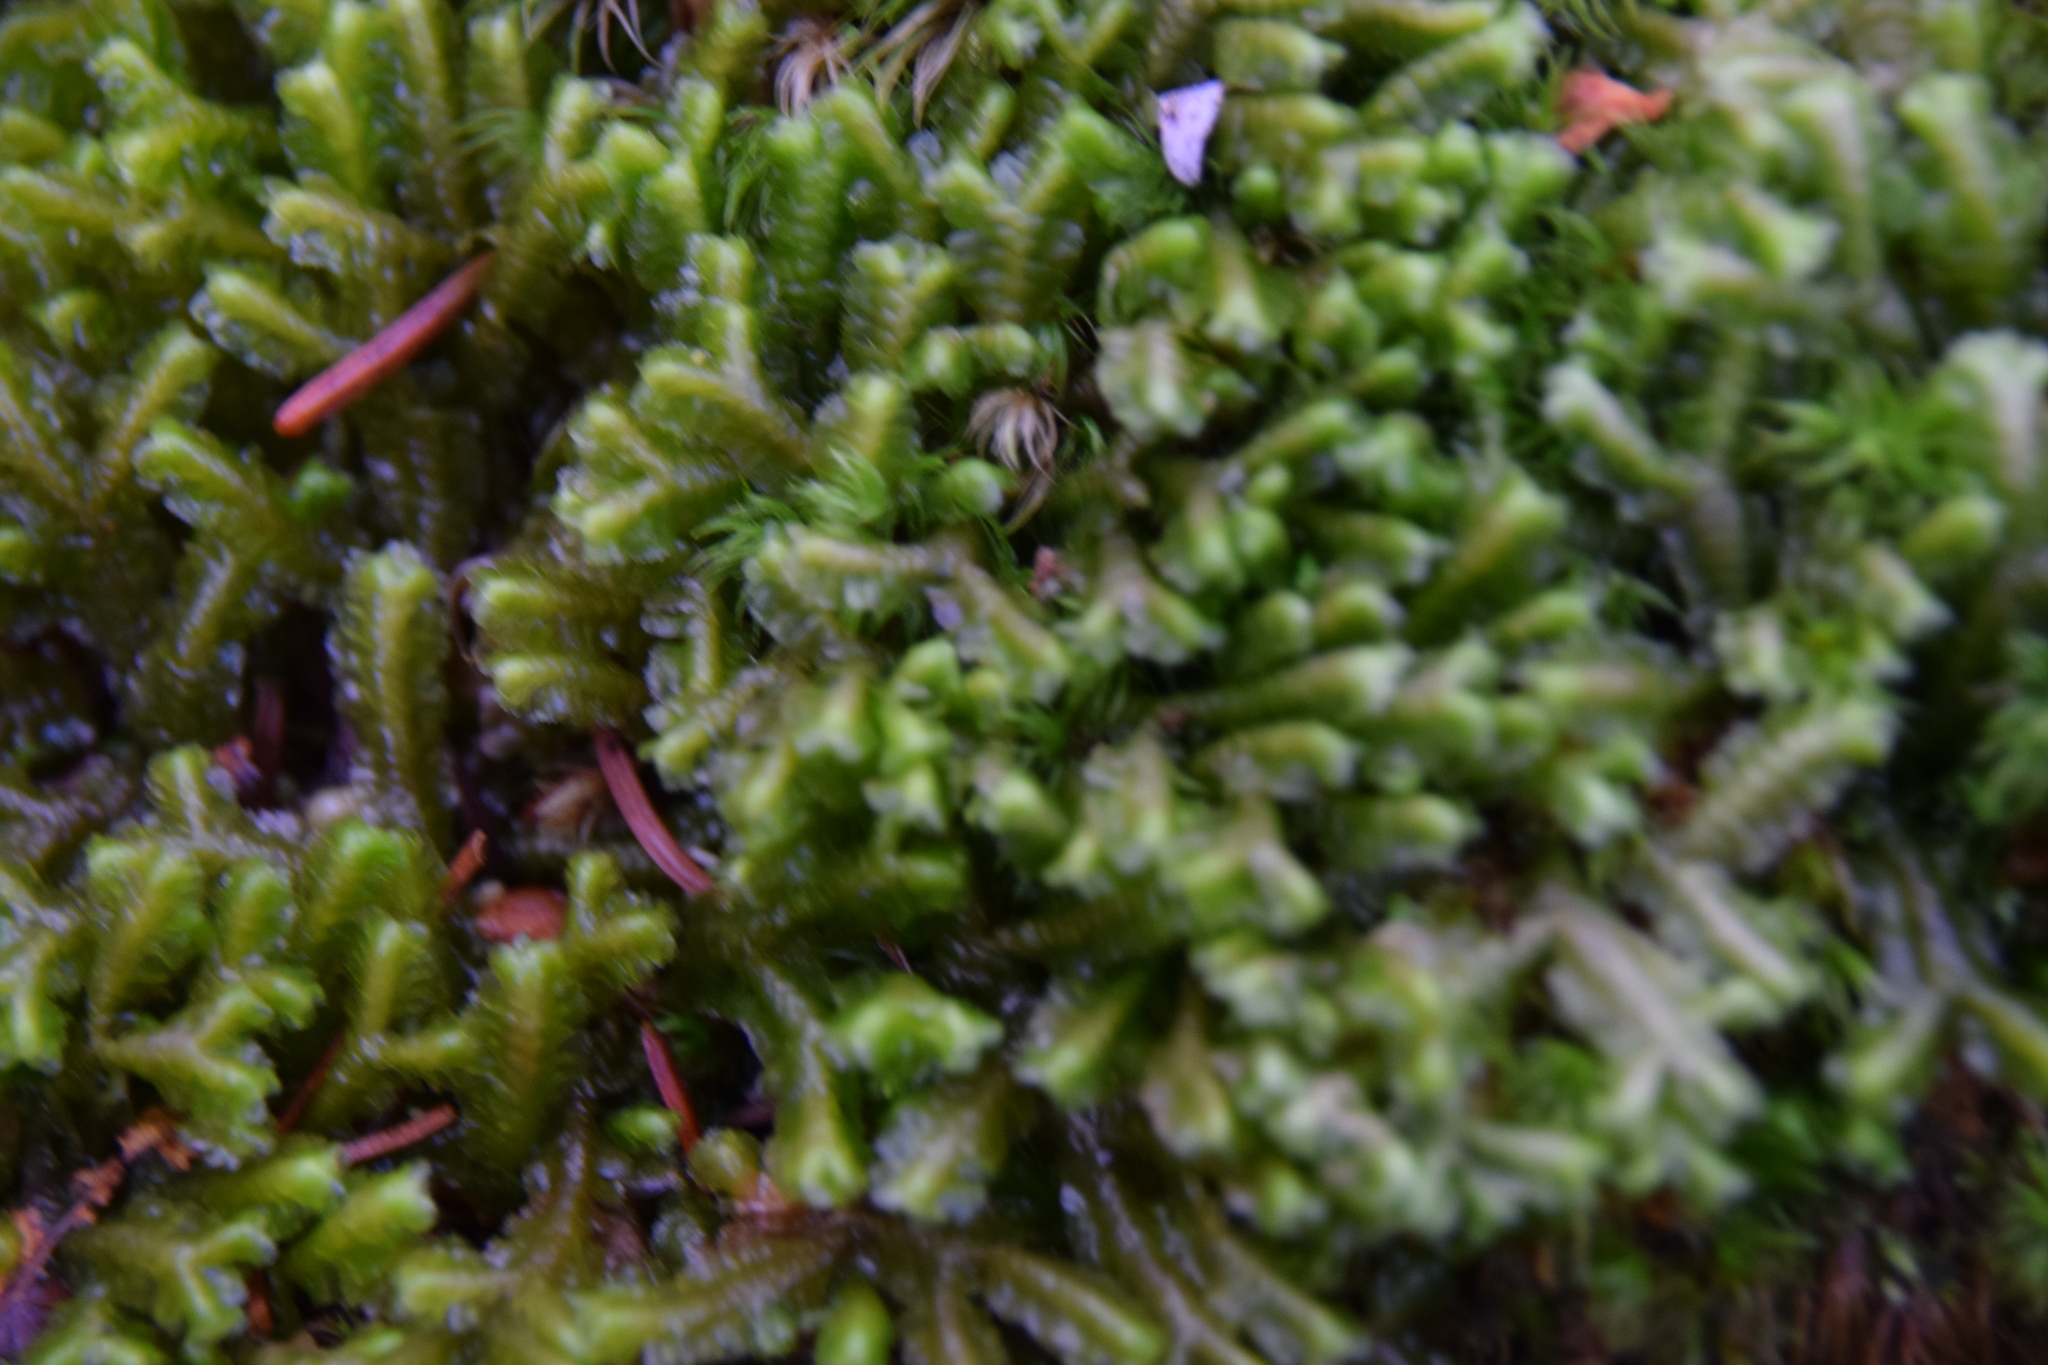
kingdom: Plantae
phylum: Marchantiophyta
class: Jungermanniopsida
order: Jungermanniales
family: Lepidoziaceae
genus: Bazzania
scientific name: Bazzania trilobata
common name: Three-lobed whipwort
